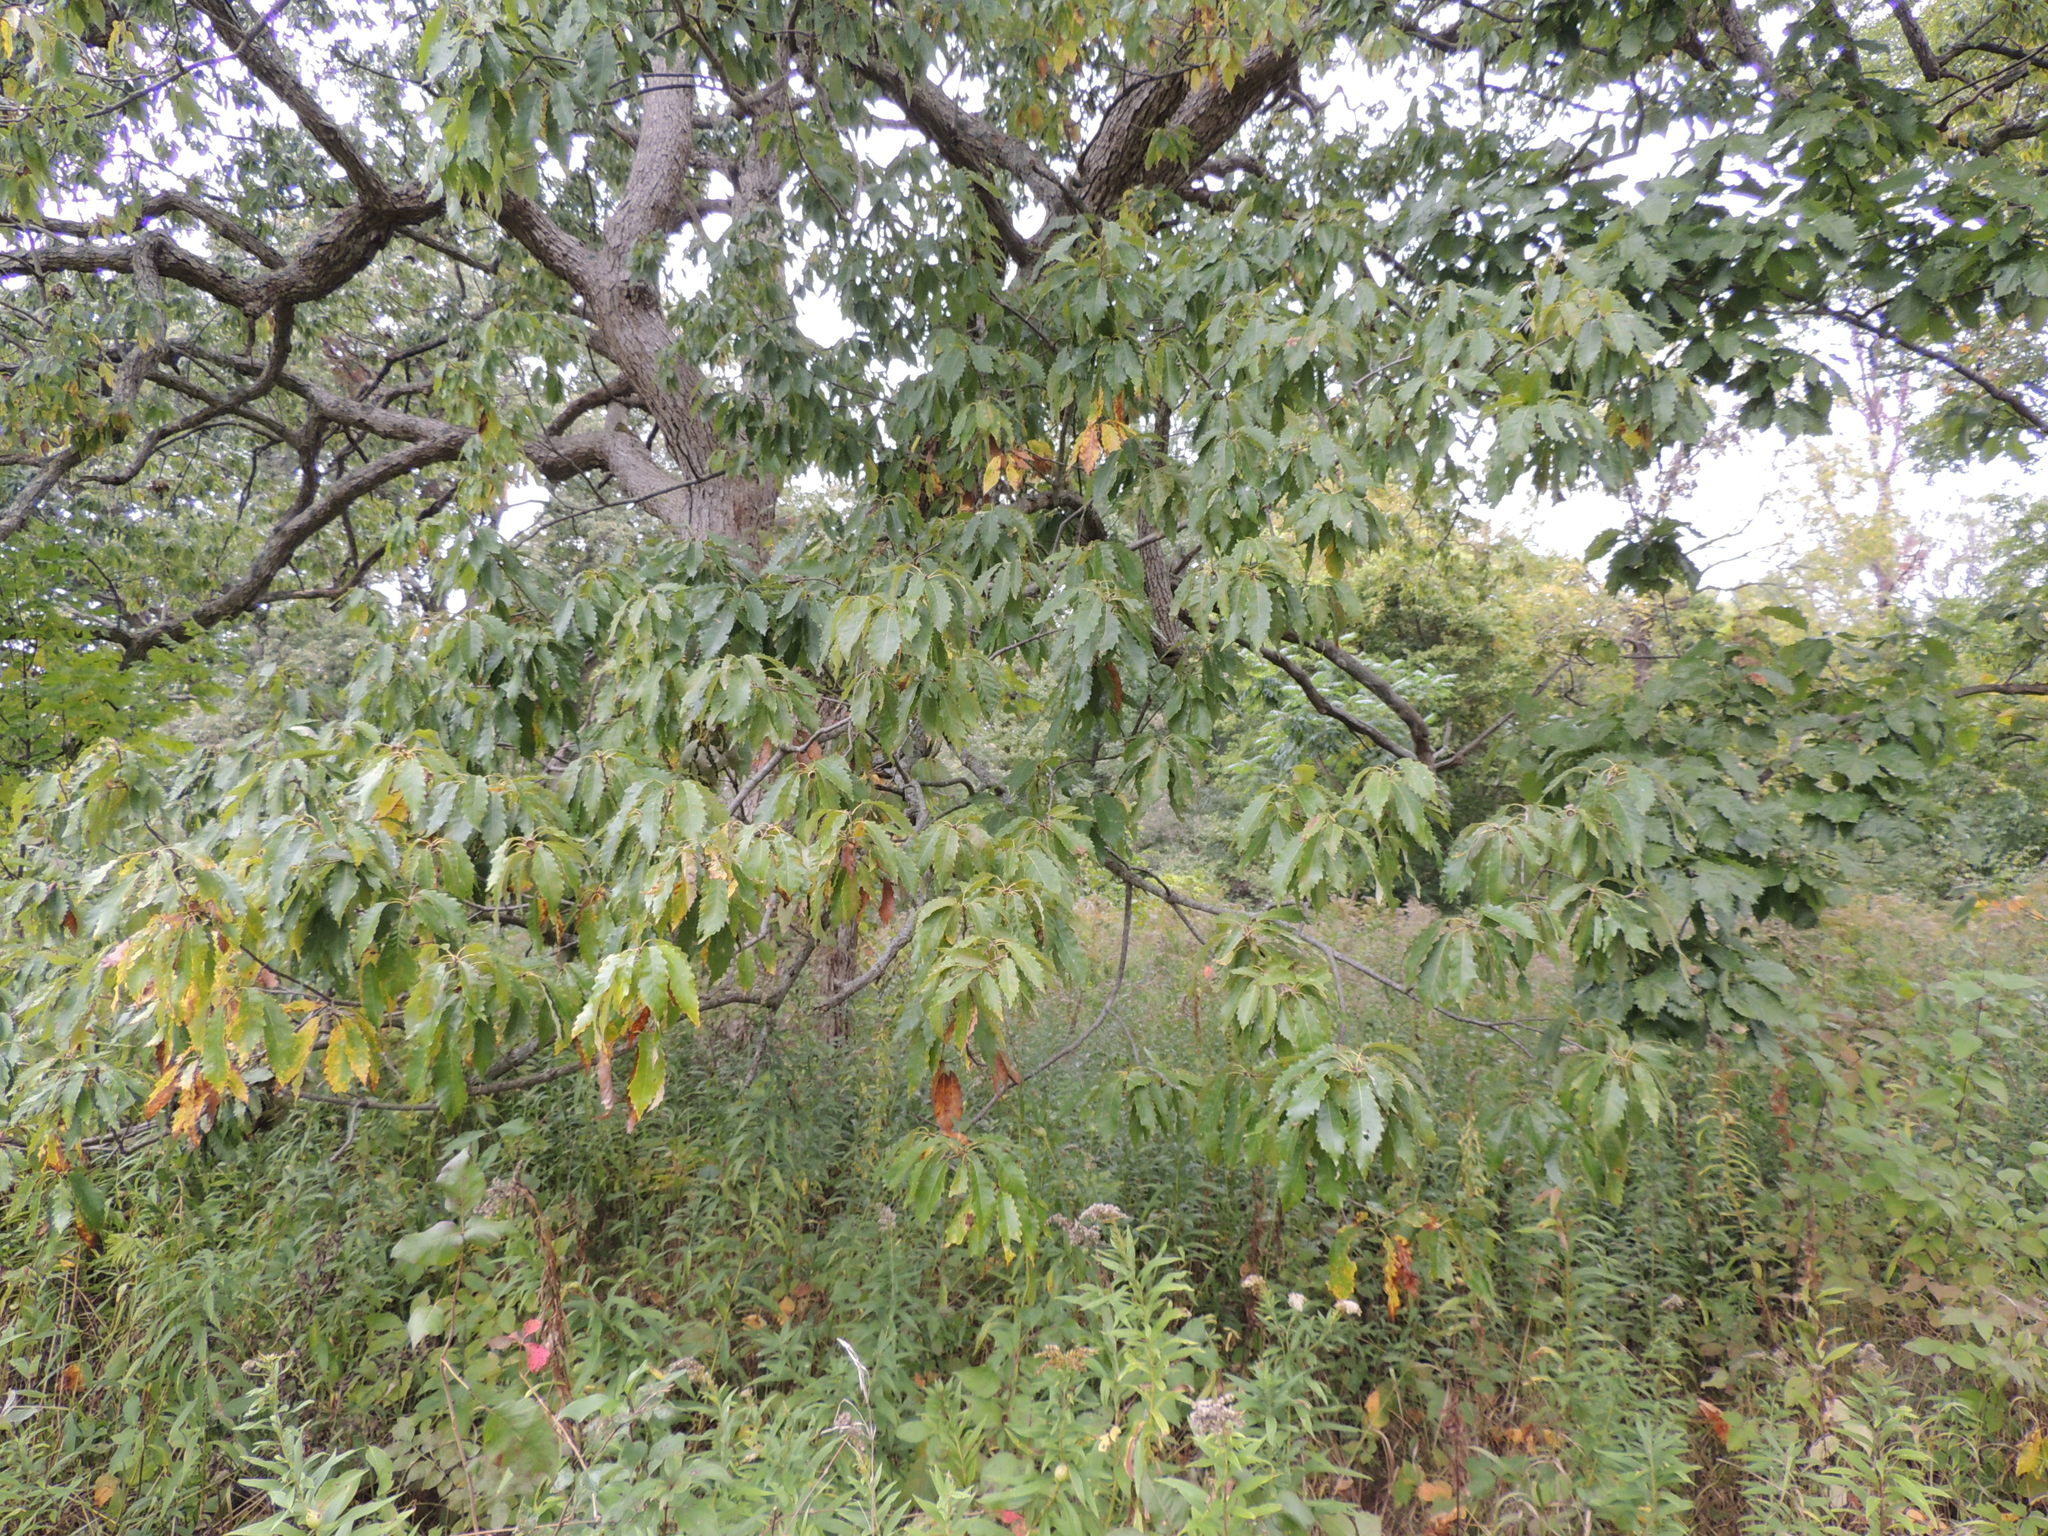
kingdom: Plantae
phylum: Tracheophyta
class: Magnoliopsida
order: Fagales
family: Fagaceae
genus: Quercus
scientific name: Quercus muehlenbergii
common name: Chinkapin oak
